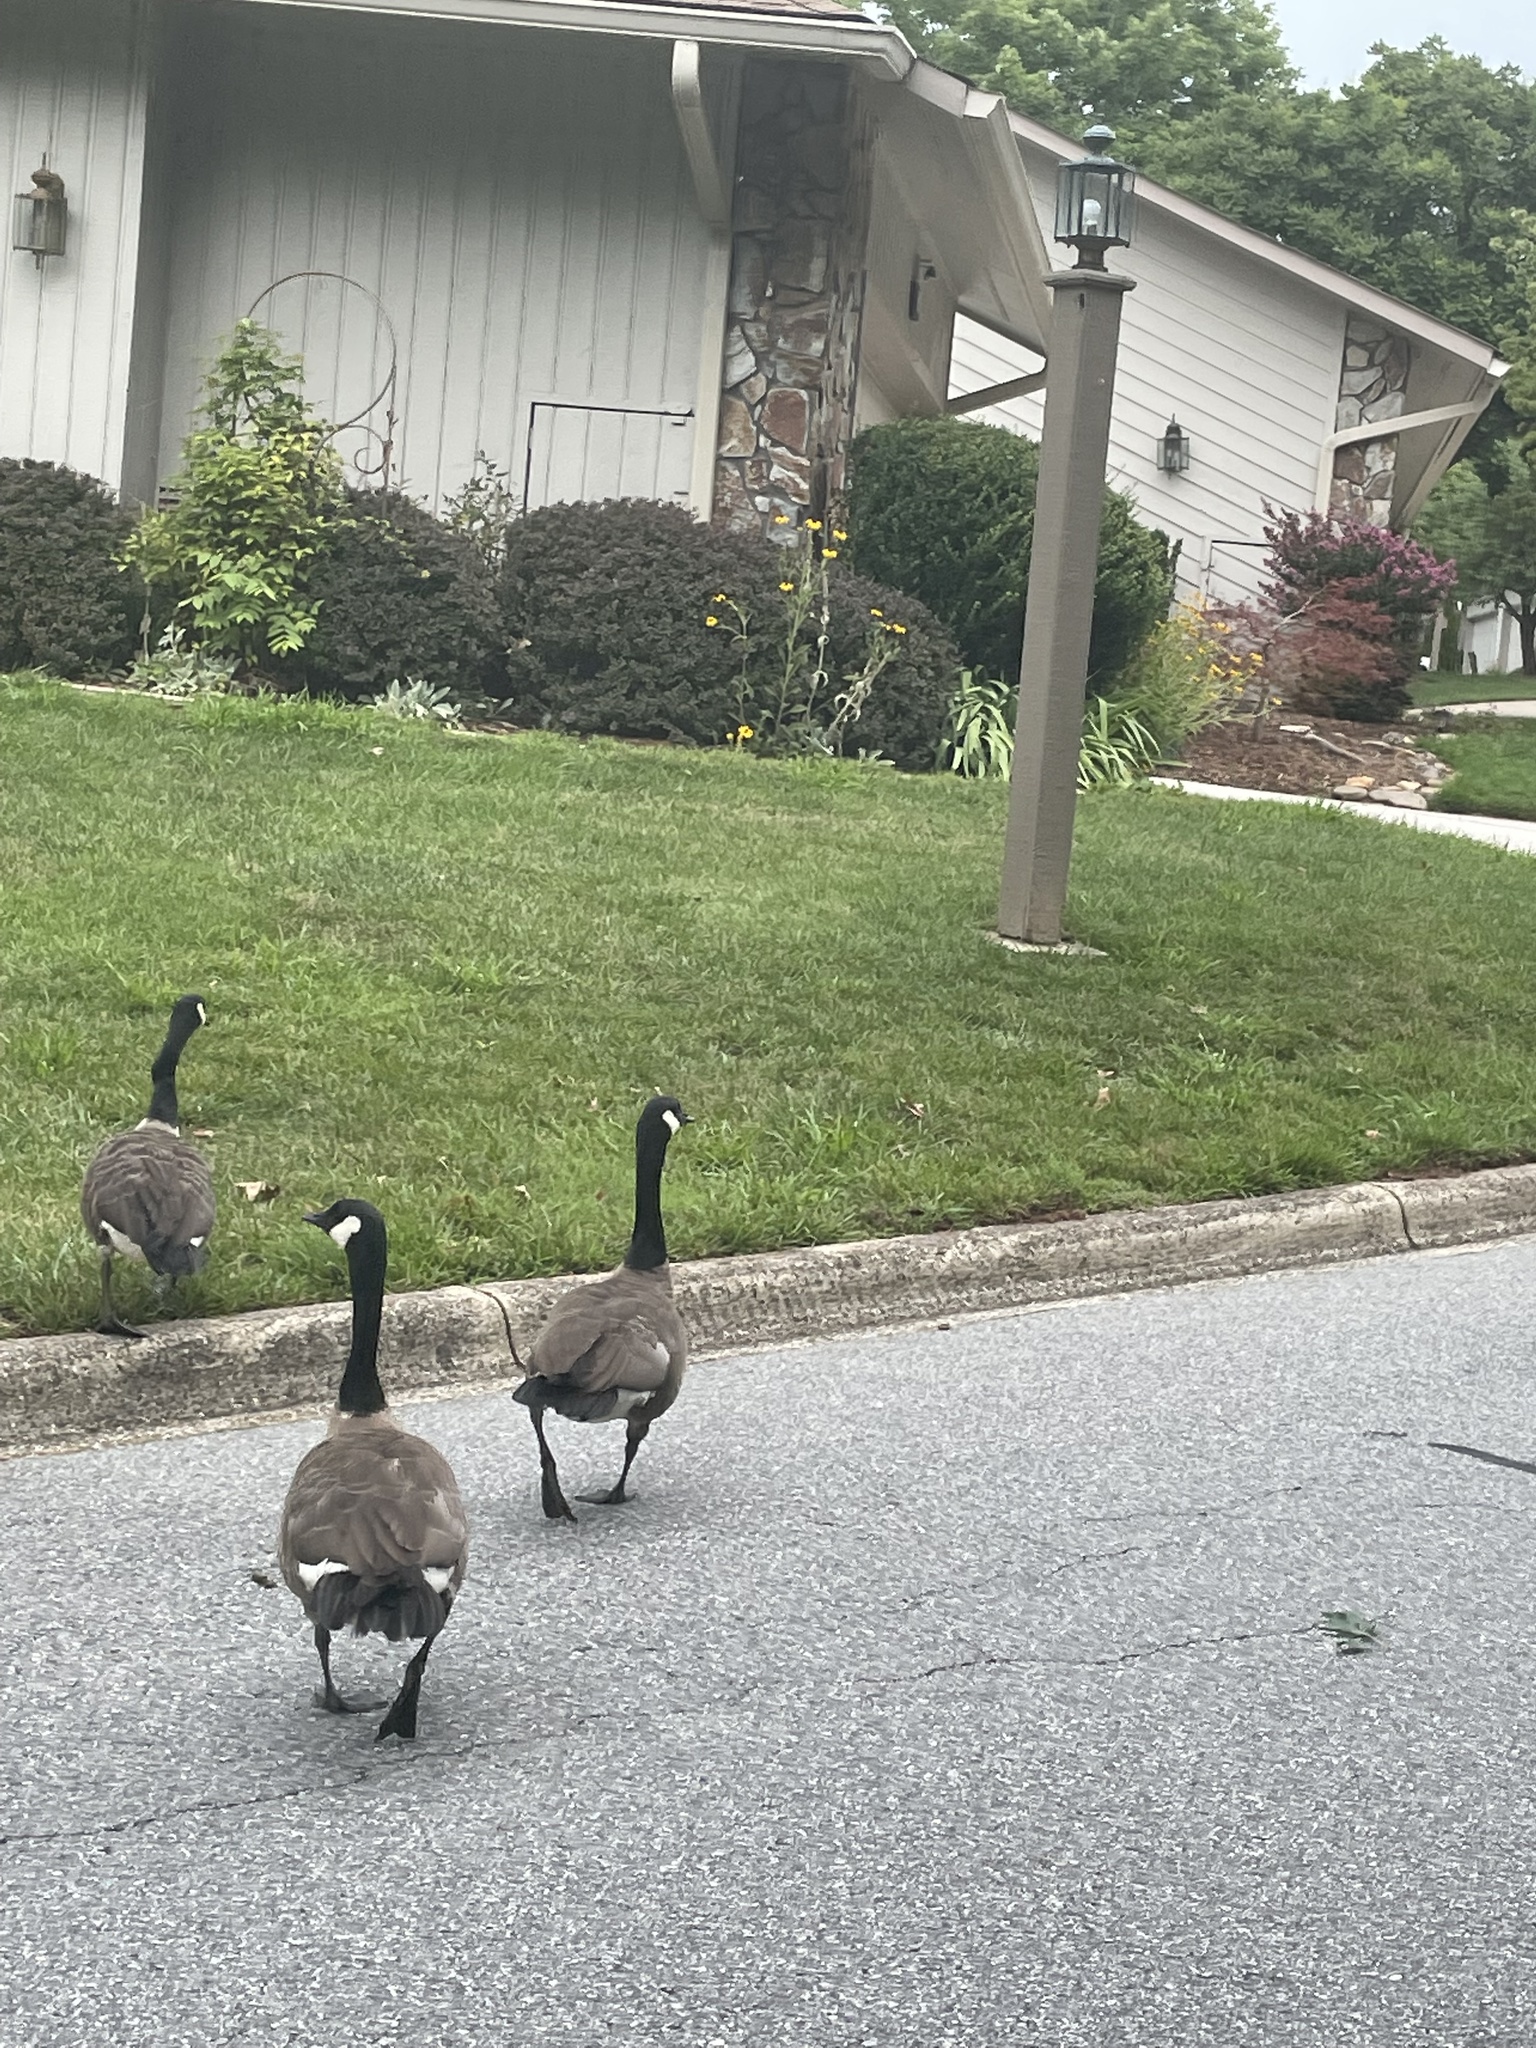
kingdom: Animalia
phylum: Chordata
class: Aves
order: Anseriformes
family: Anatidae
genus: Branta
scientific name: Branta canadensis
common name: Canada goose
